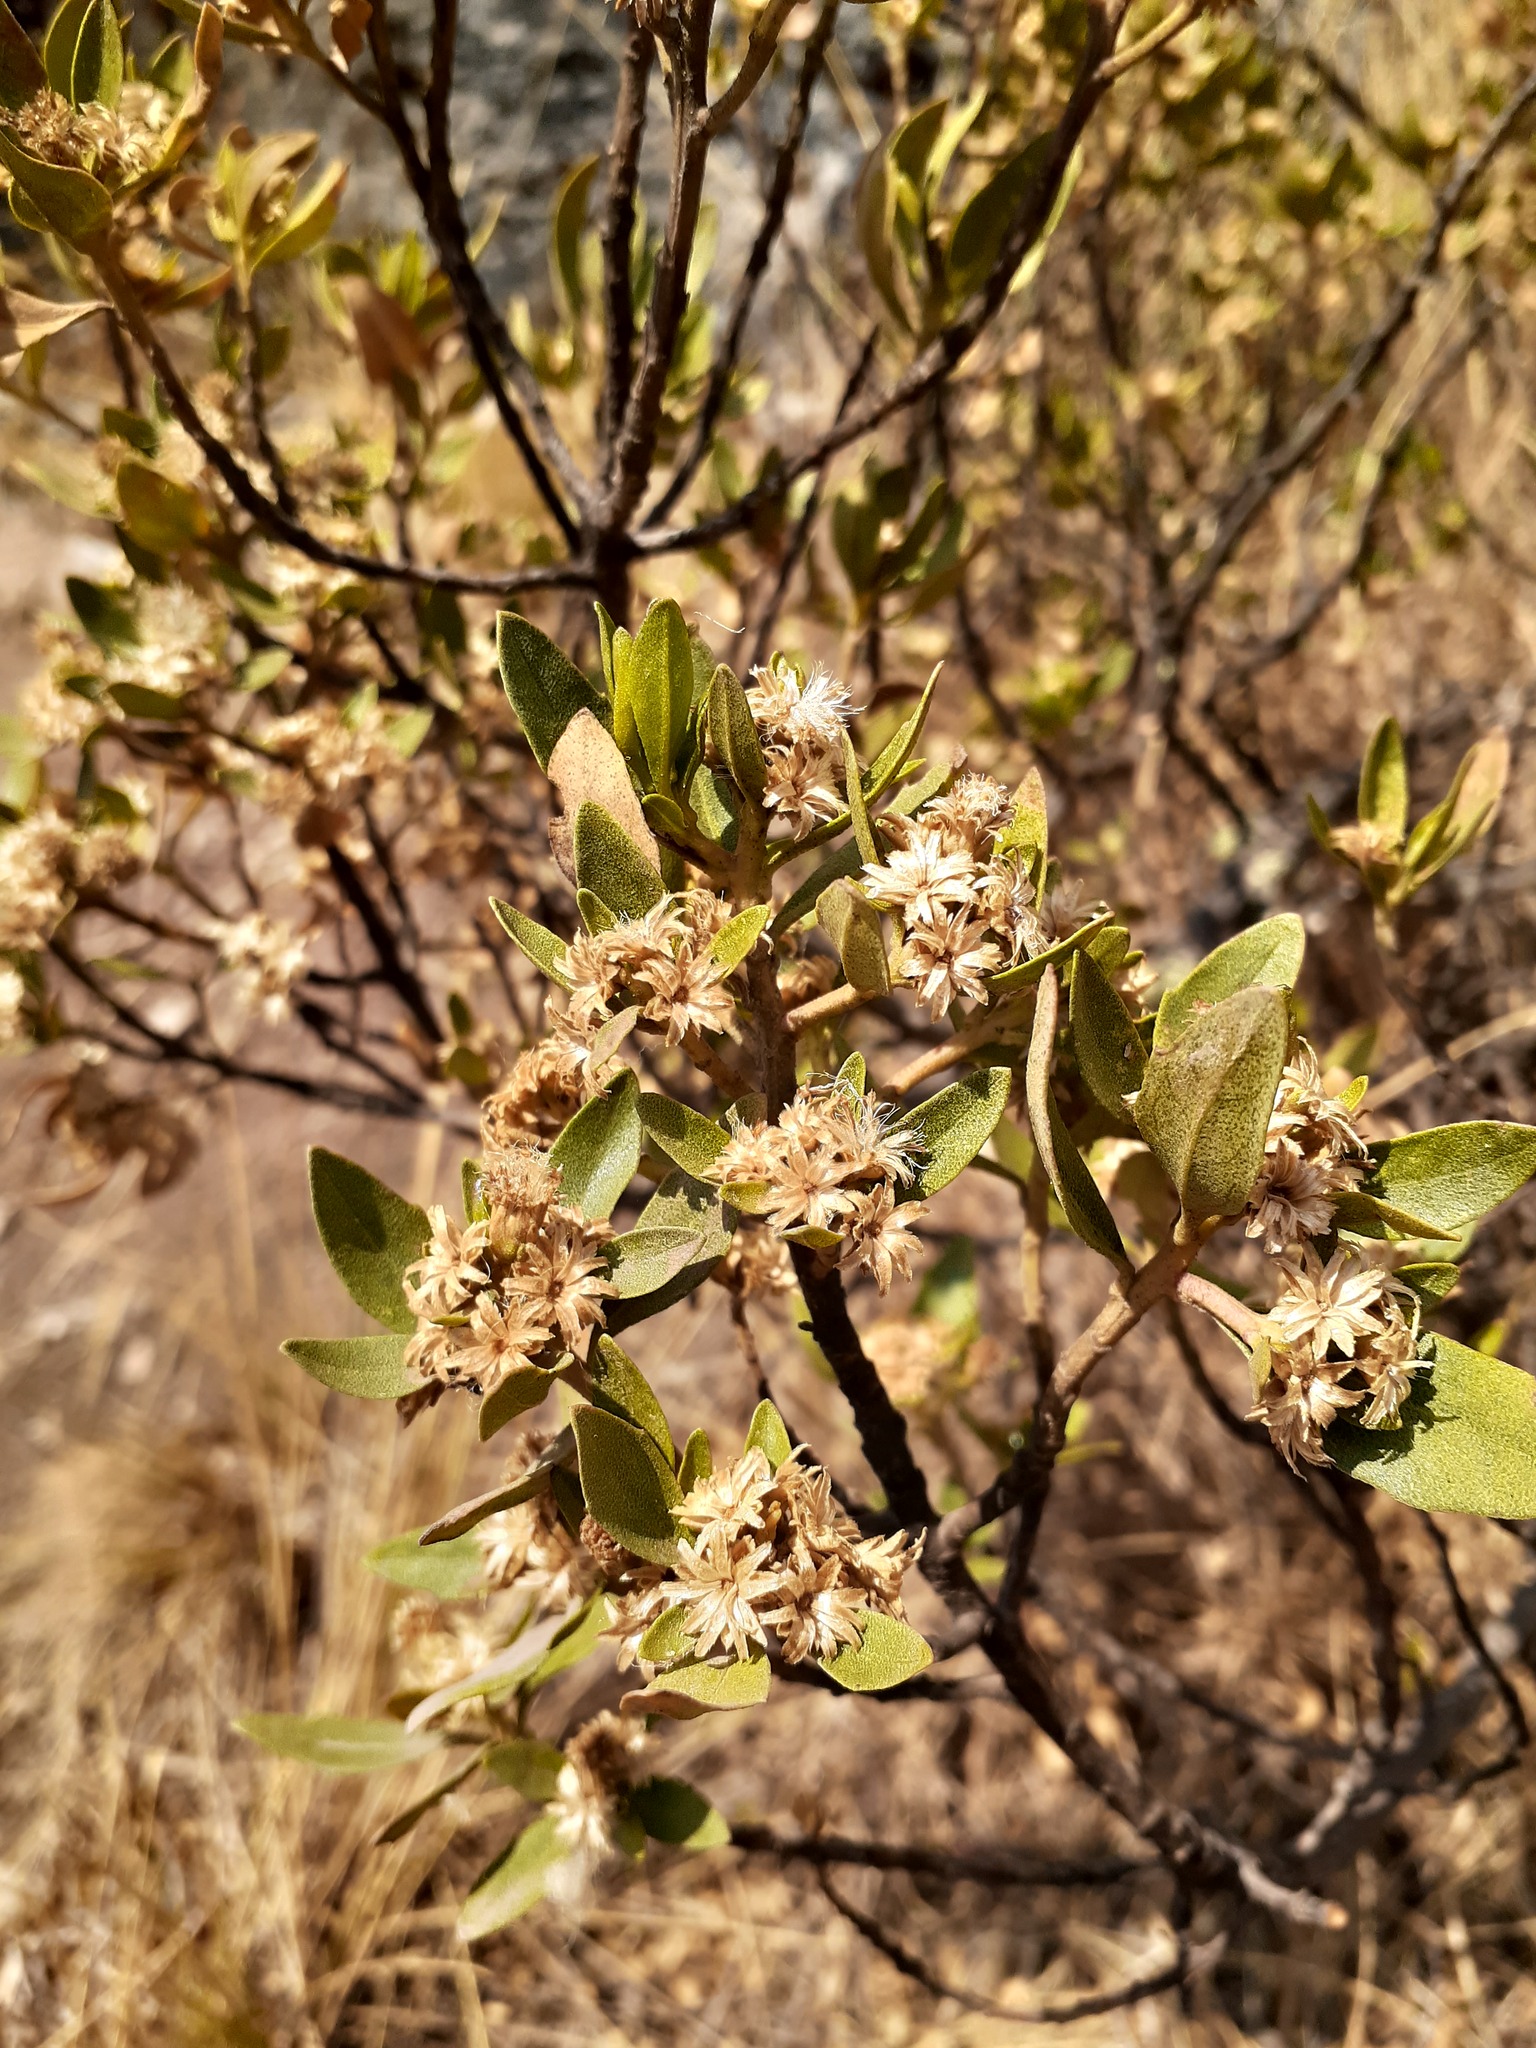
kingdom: Plantae
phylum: Tracheophyta
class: Magnoliopsida
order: Asterales
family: Asteraceae
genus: Baccharis
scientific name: Baccharis odorata
